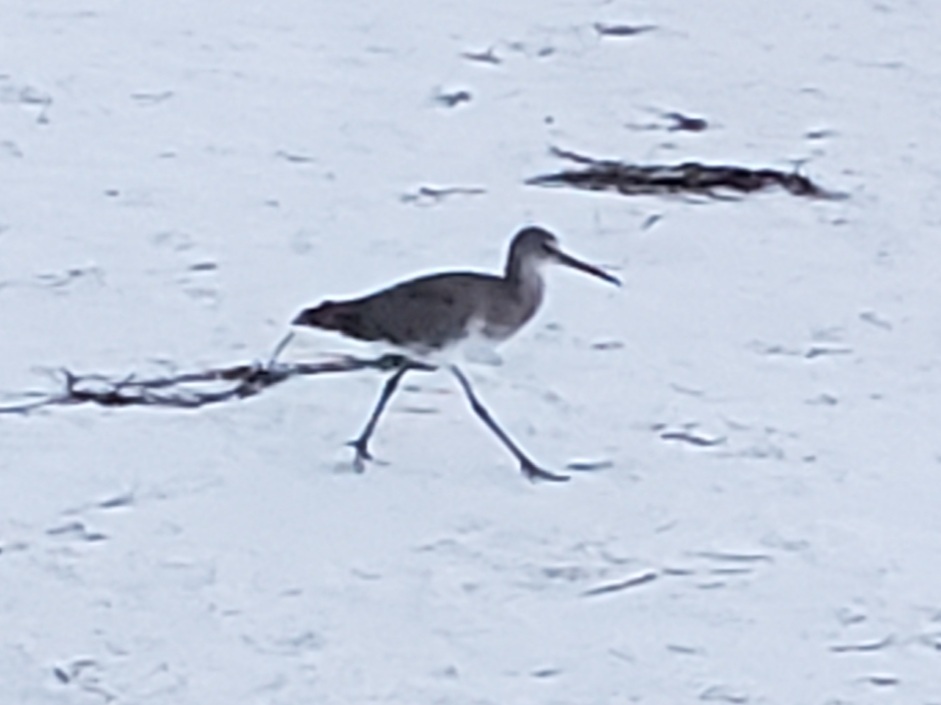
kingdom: Animalia
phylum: Chordata
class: Aves
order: Charadriiformes
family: Scolopacidae
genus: Tringa
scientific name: Tringa semipalmata
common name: Willet
